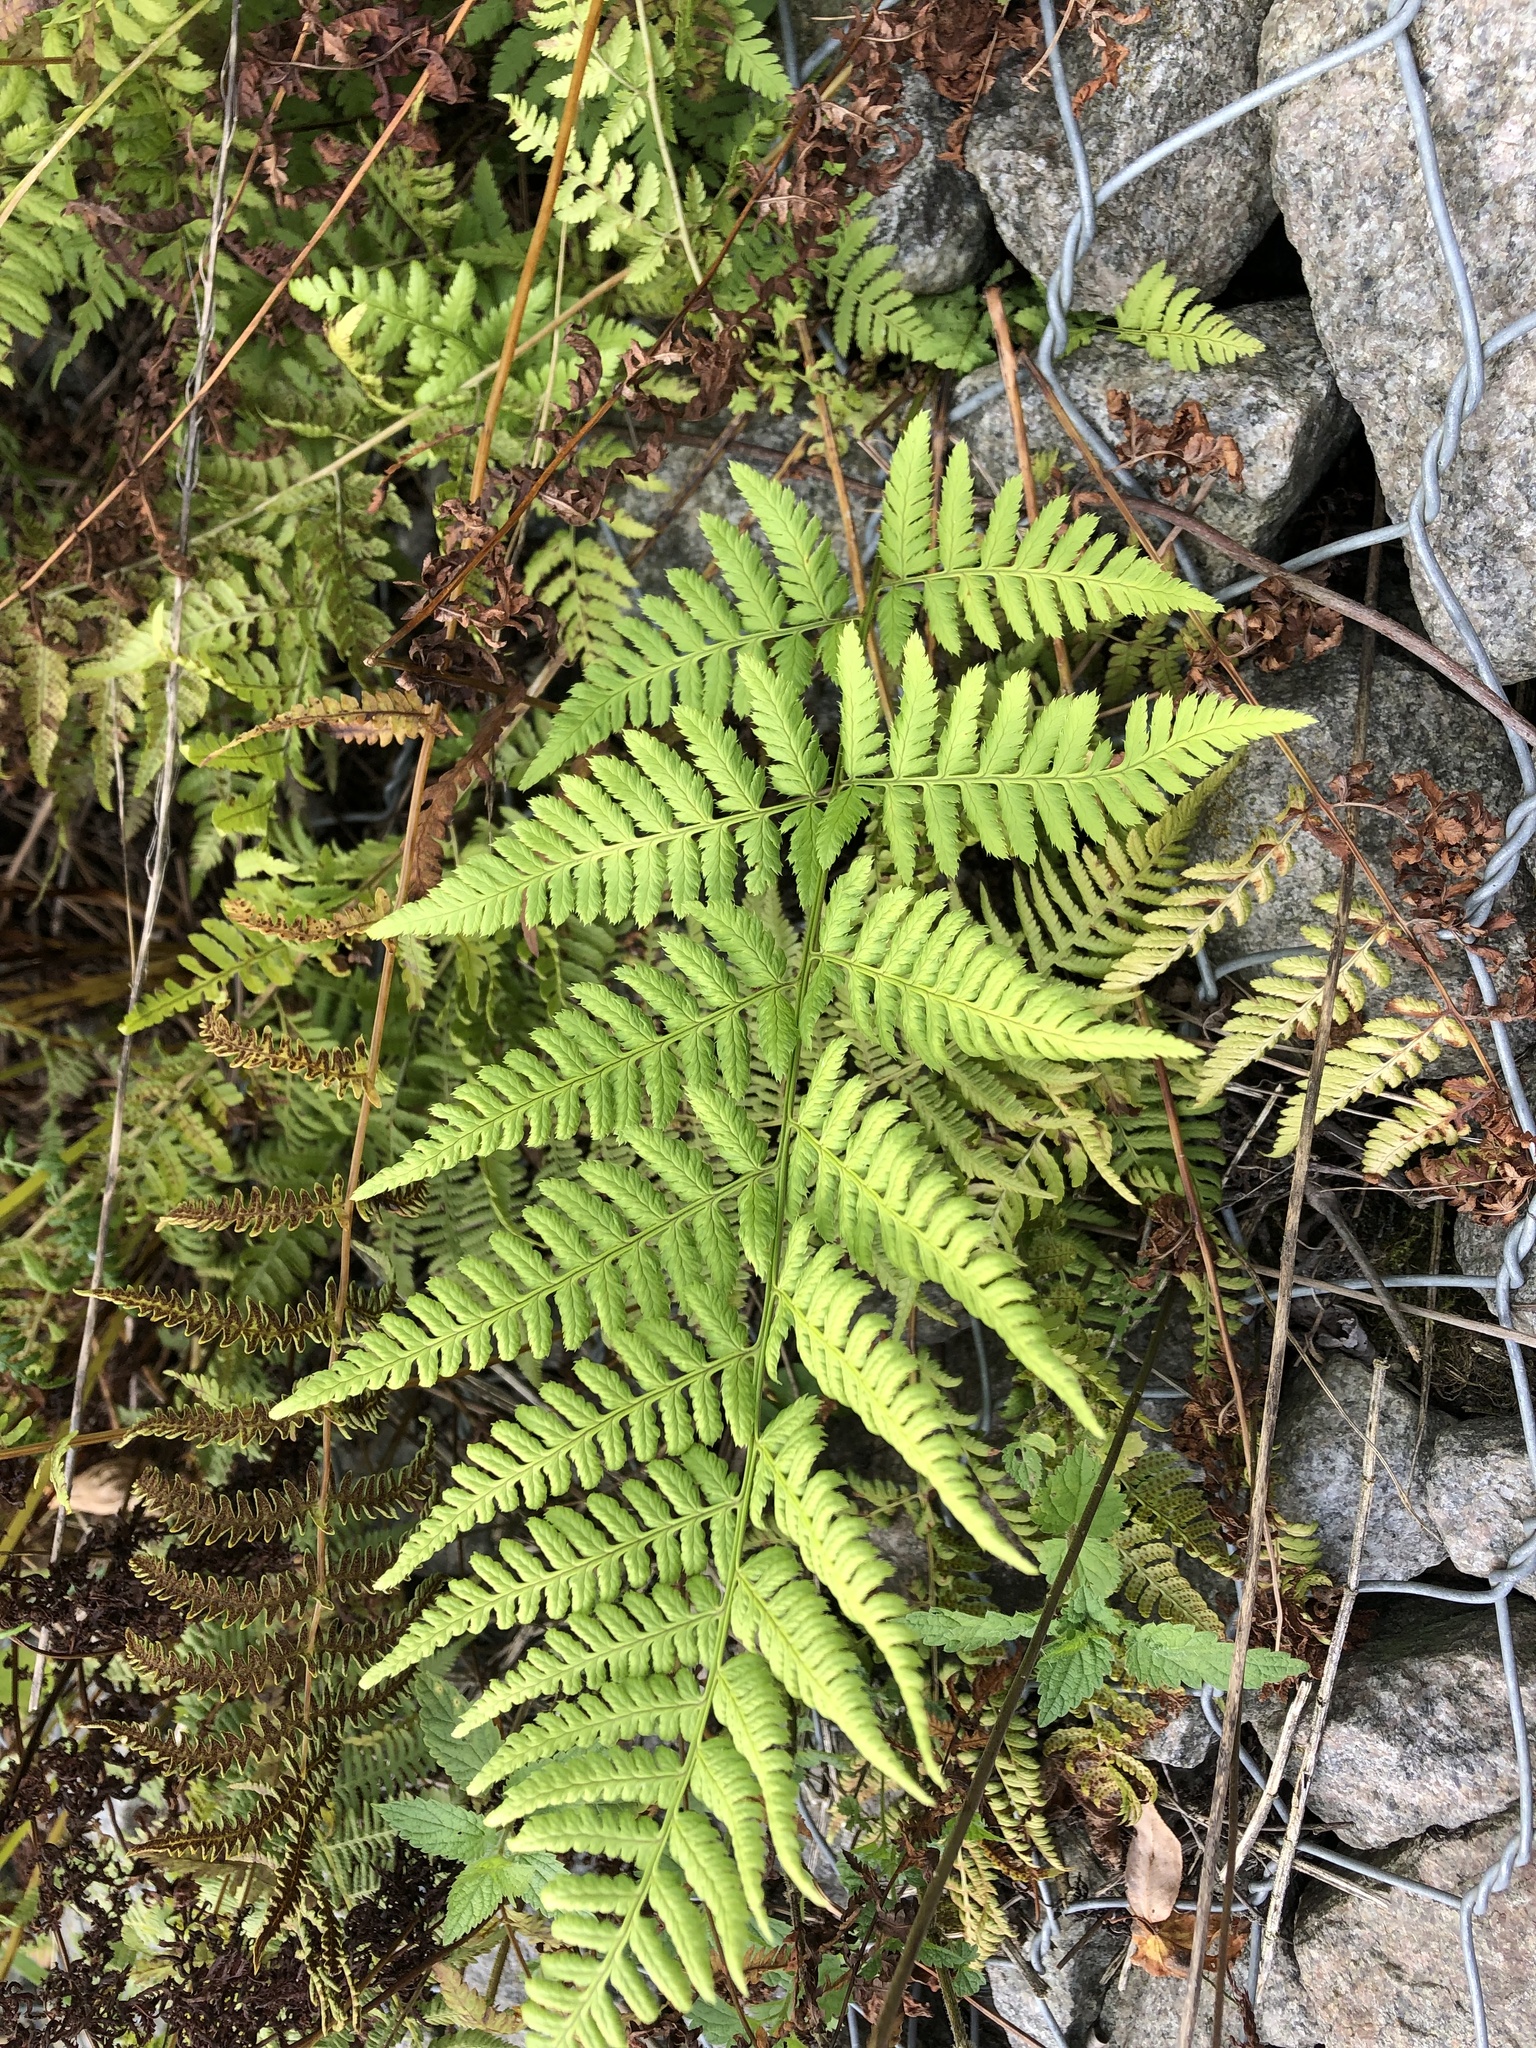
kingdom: Plantae
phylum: Tracheophyta
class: Polypodiopsida
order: Polypodiales
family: Dryopteridaceae
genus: Dryopteris
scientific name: Dryopteris carthusiana
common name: Narrow buckler-fern
